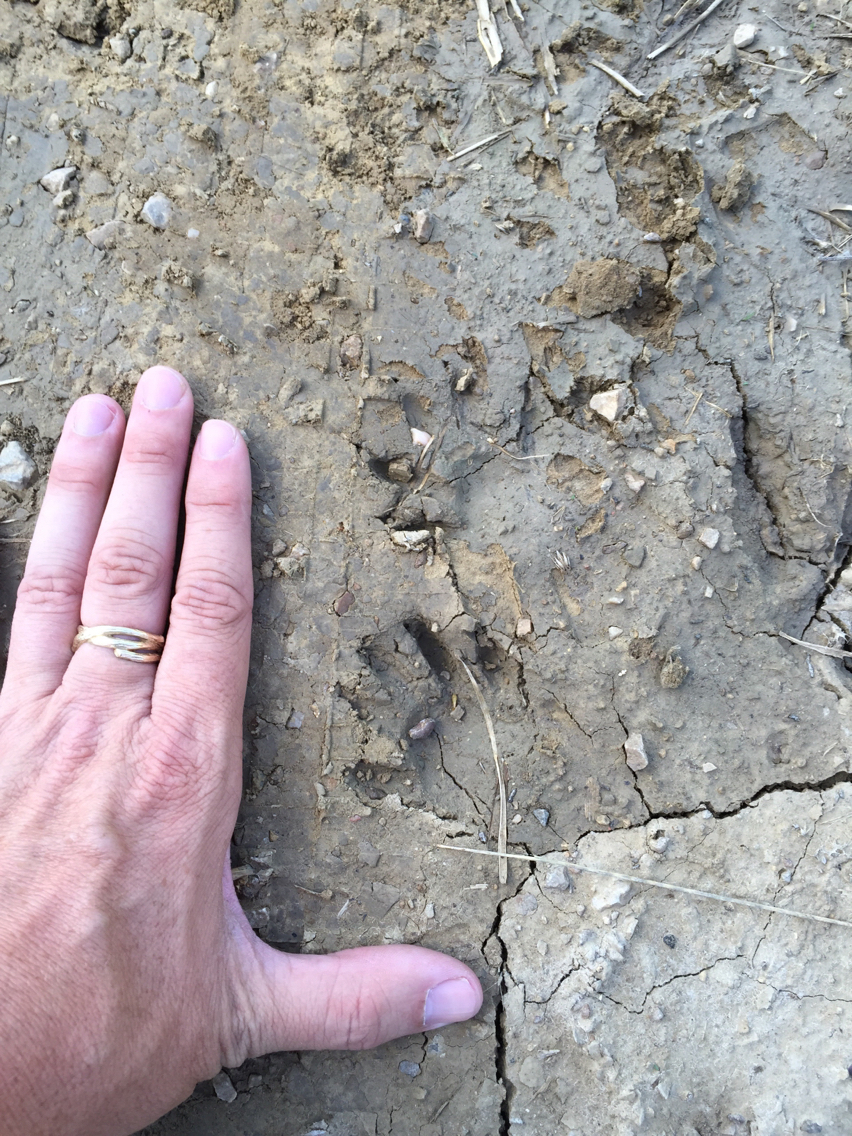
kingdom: Animalia
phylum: Chordata
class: Mammalia
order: Carnivora
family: Procyonidae
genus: Procyon
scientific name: Procyon lotor
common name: Raccoon
